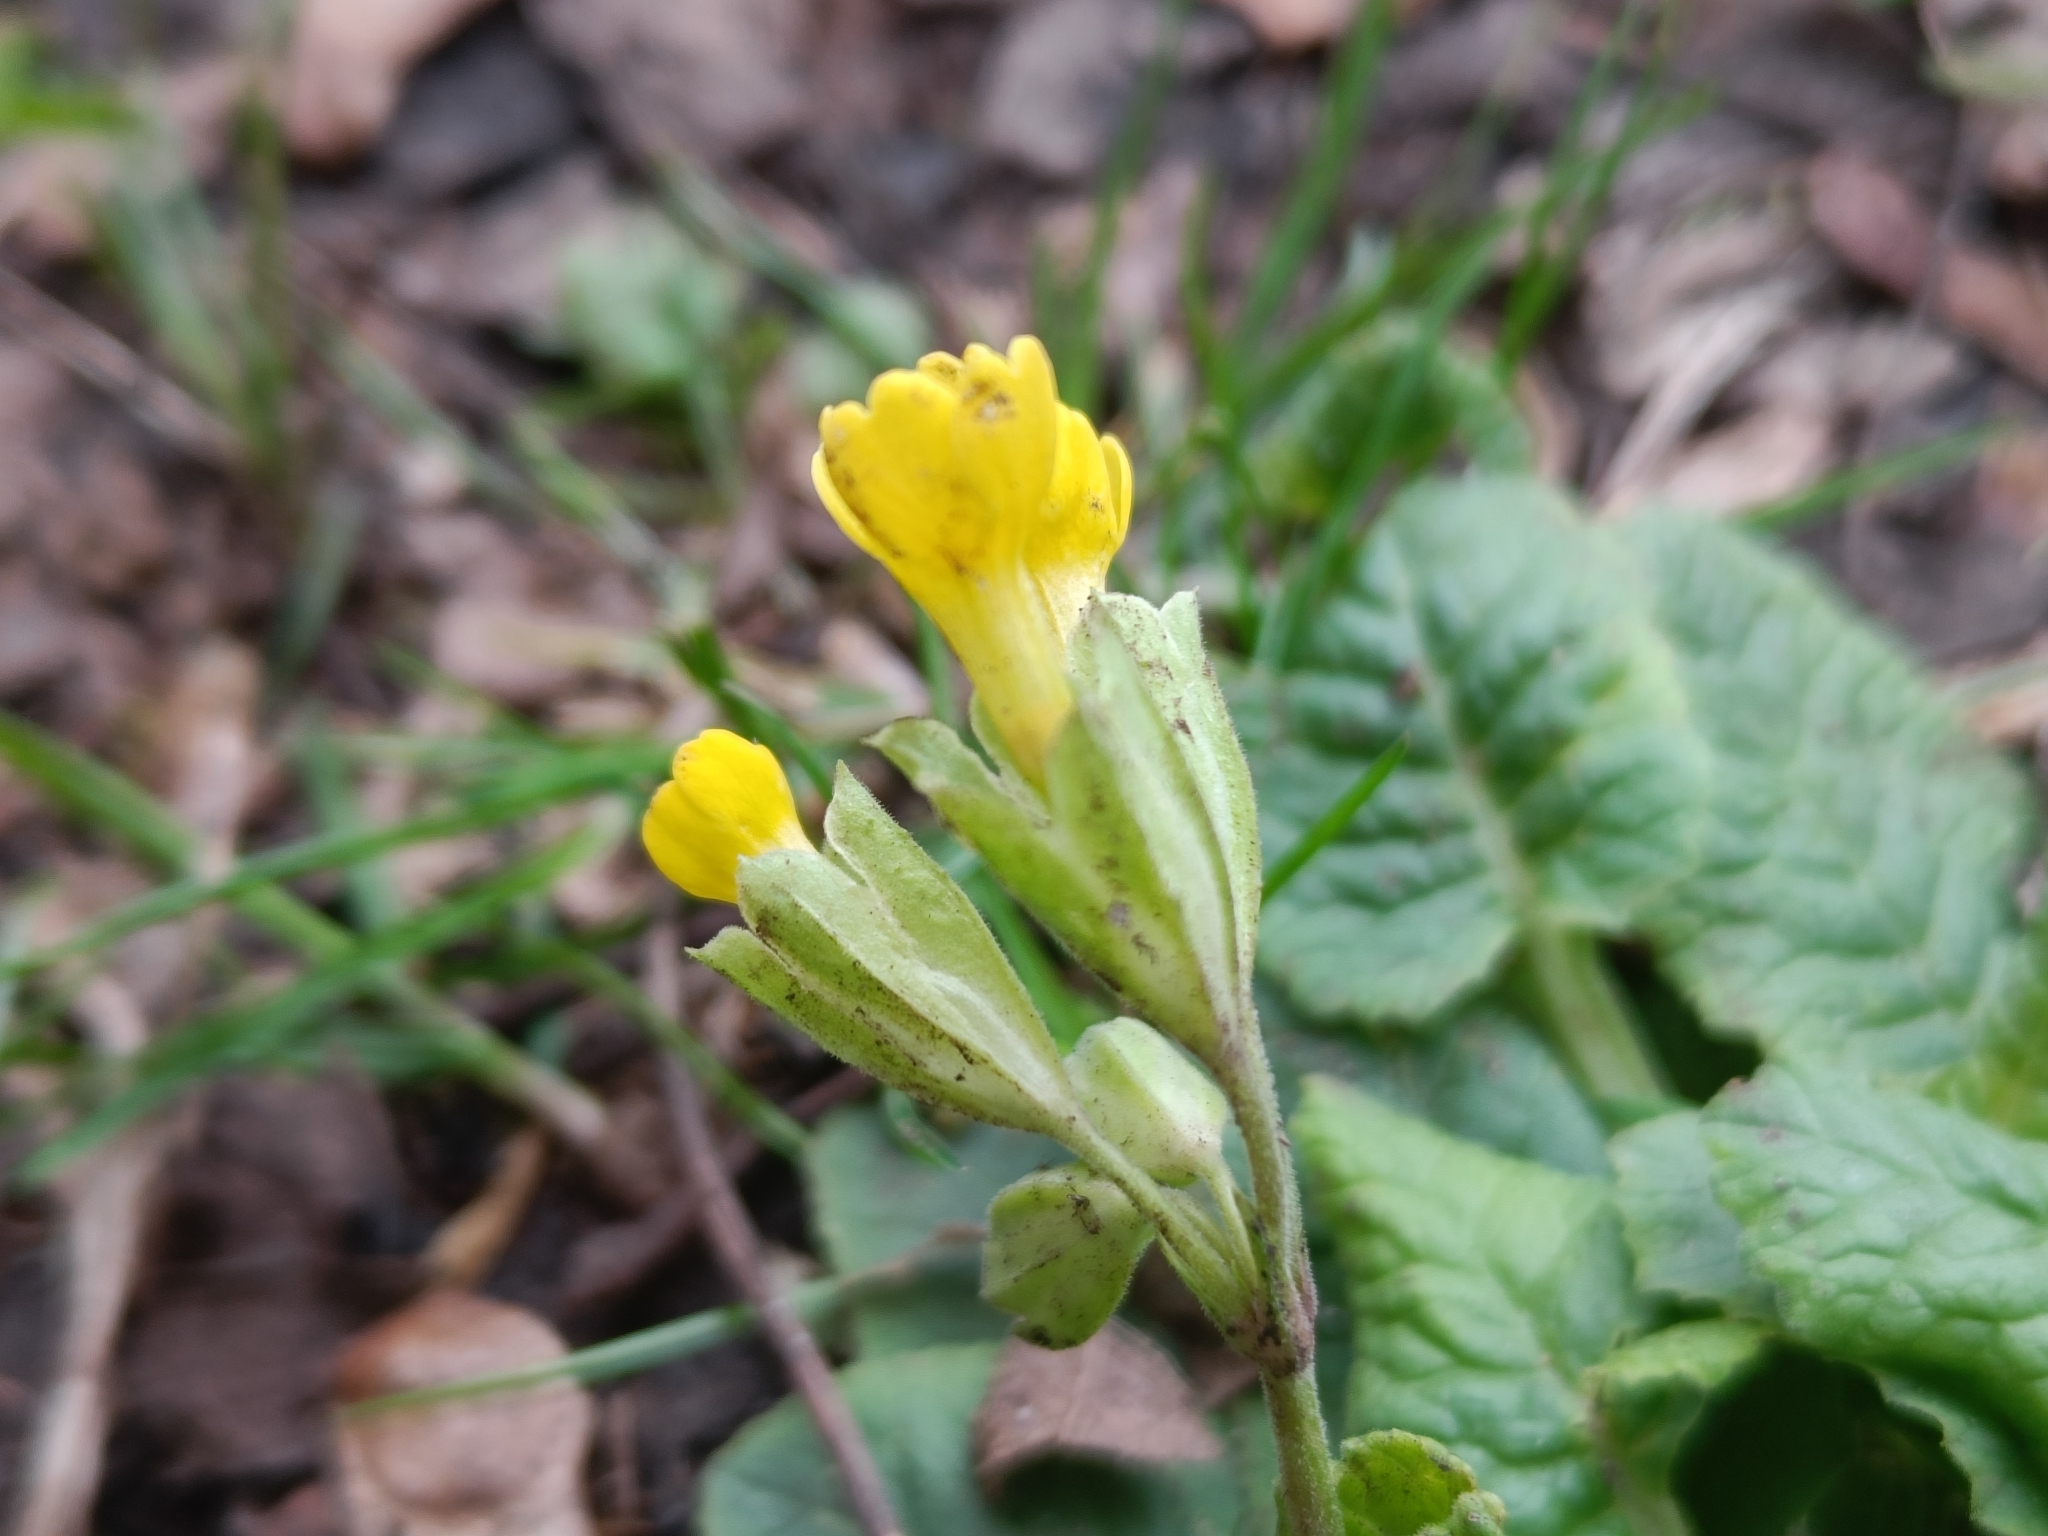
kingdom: Plantae
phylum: Tracheophyta
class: Magnoliopsida
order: Ericales
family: Primulaceae
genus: Primula
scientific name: Primula veris
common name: Cowslip
